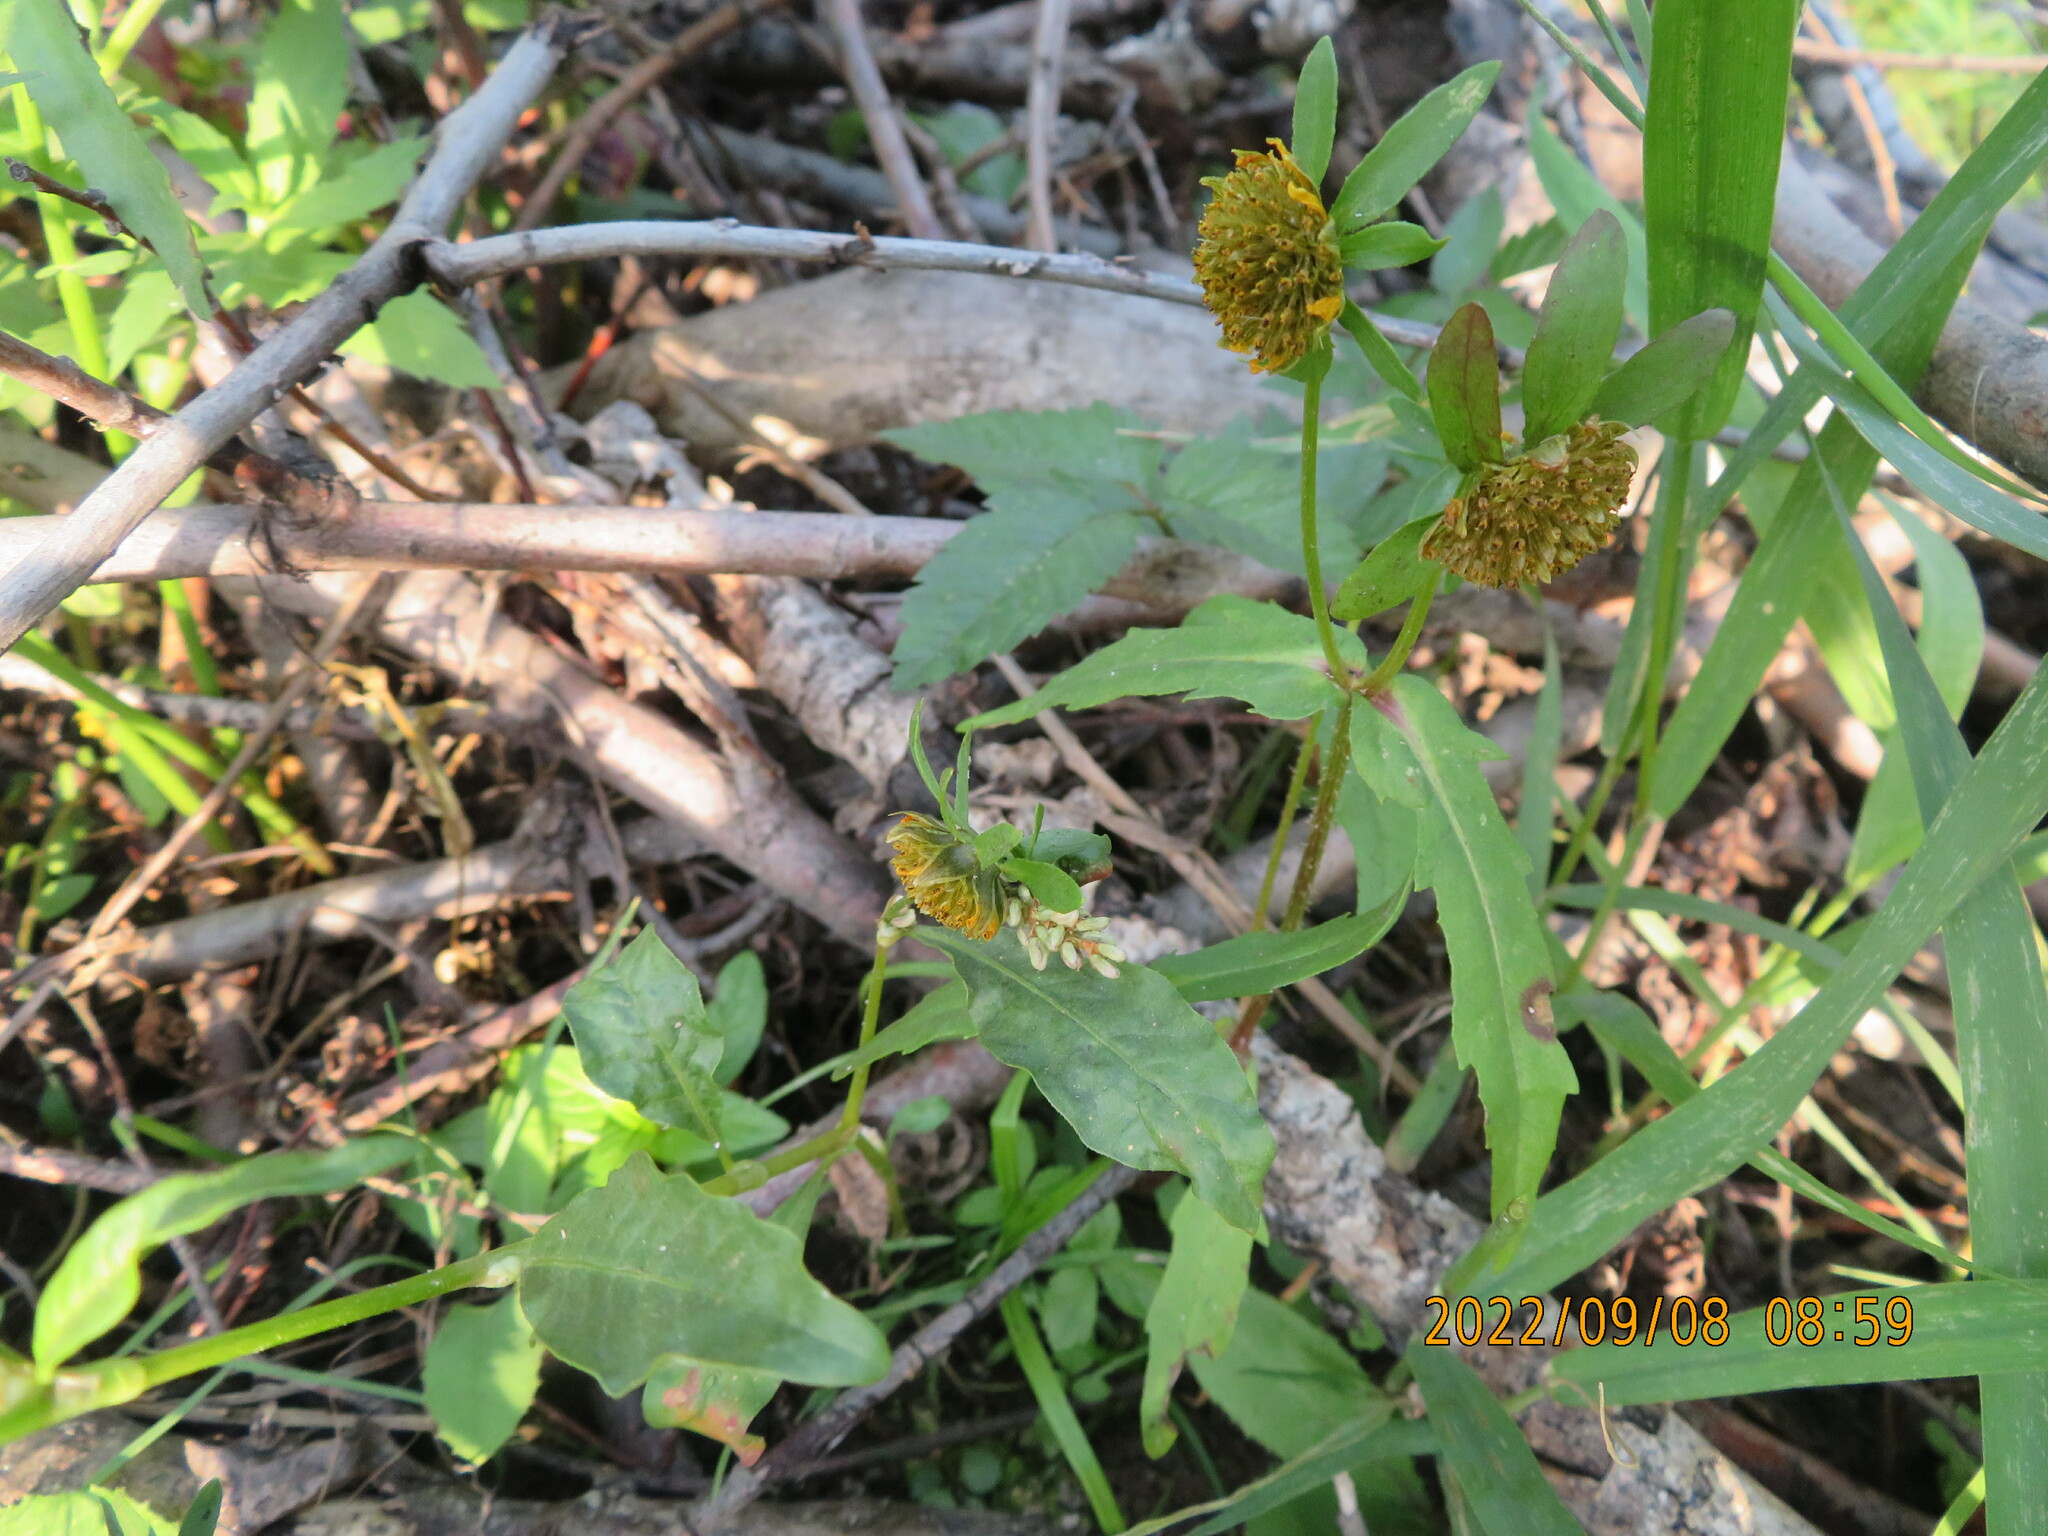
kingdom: Plantae
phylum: Tracheophyta
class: Magnoliopsida
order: Asterales
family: Asteraceae
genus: Bidens
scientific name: Bidens cernua
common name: Nodding bur-marigold
